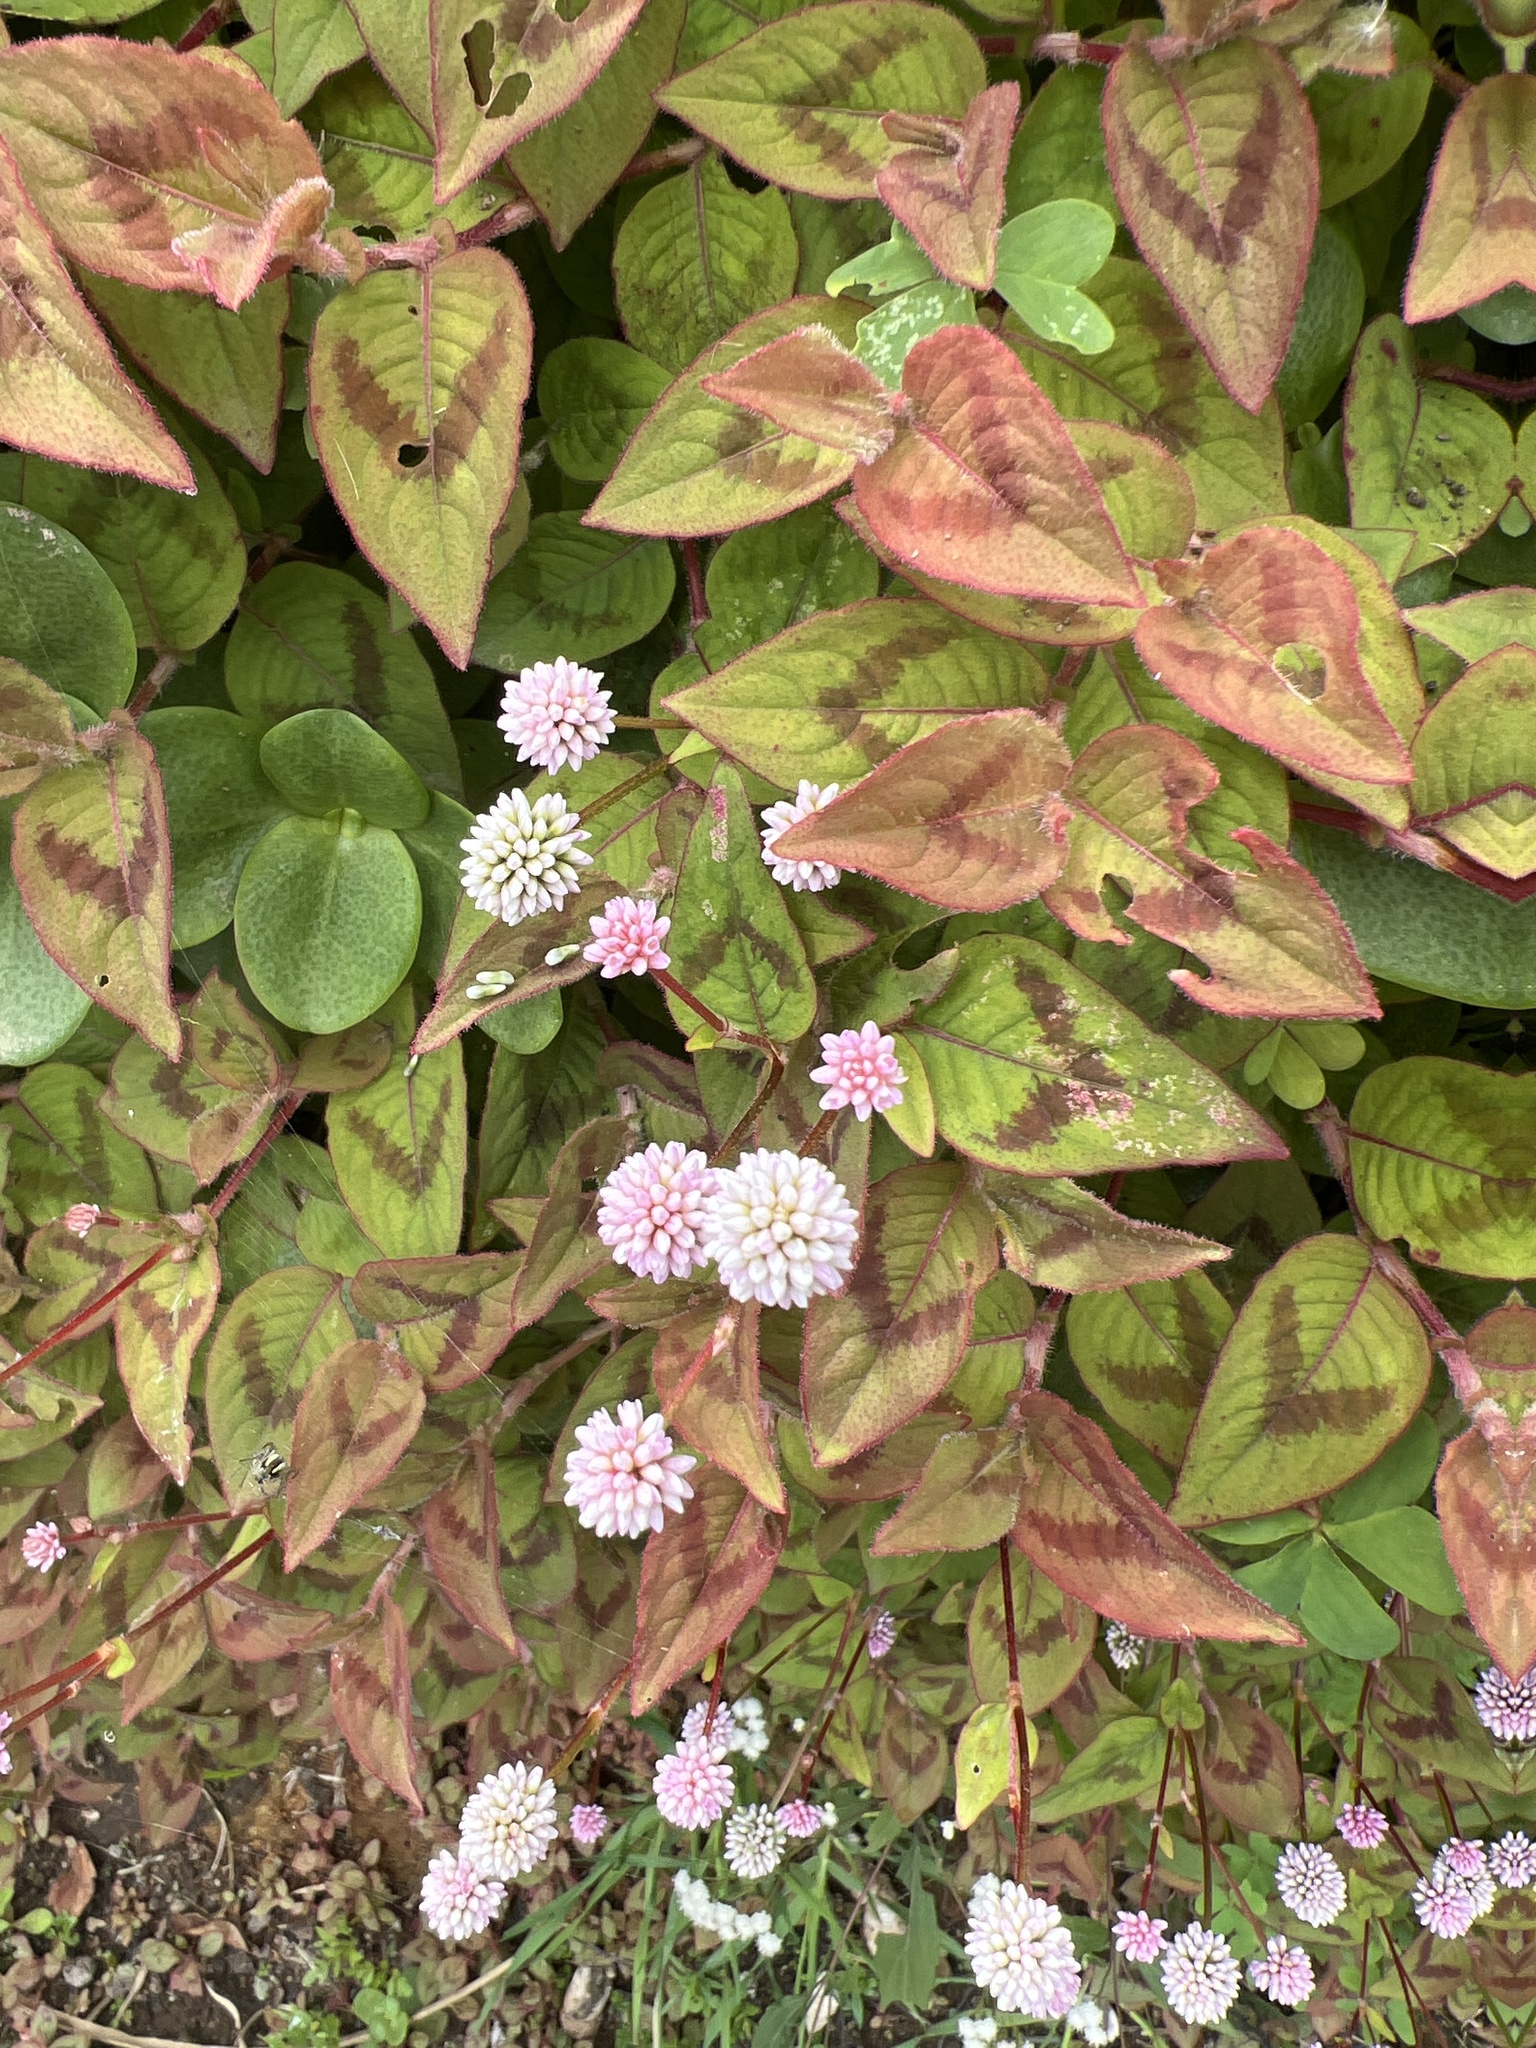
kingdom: Plantae
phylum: Tracheophyta
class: Magnoliopsida
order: Caryophyllales
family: Polygonaceae
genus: Persicaria
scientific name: Persicaria capitata
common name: Pinkhead smartweed
